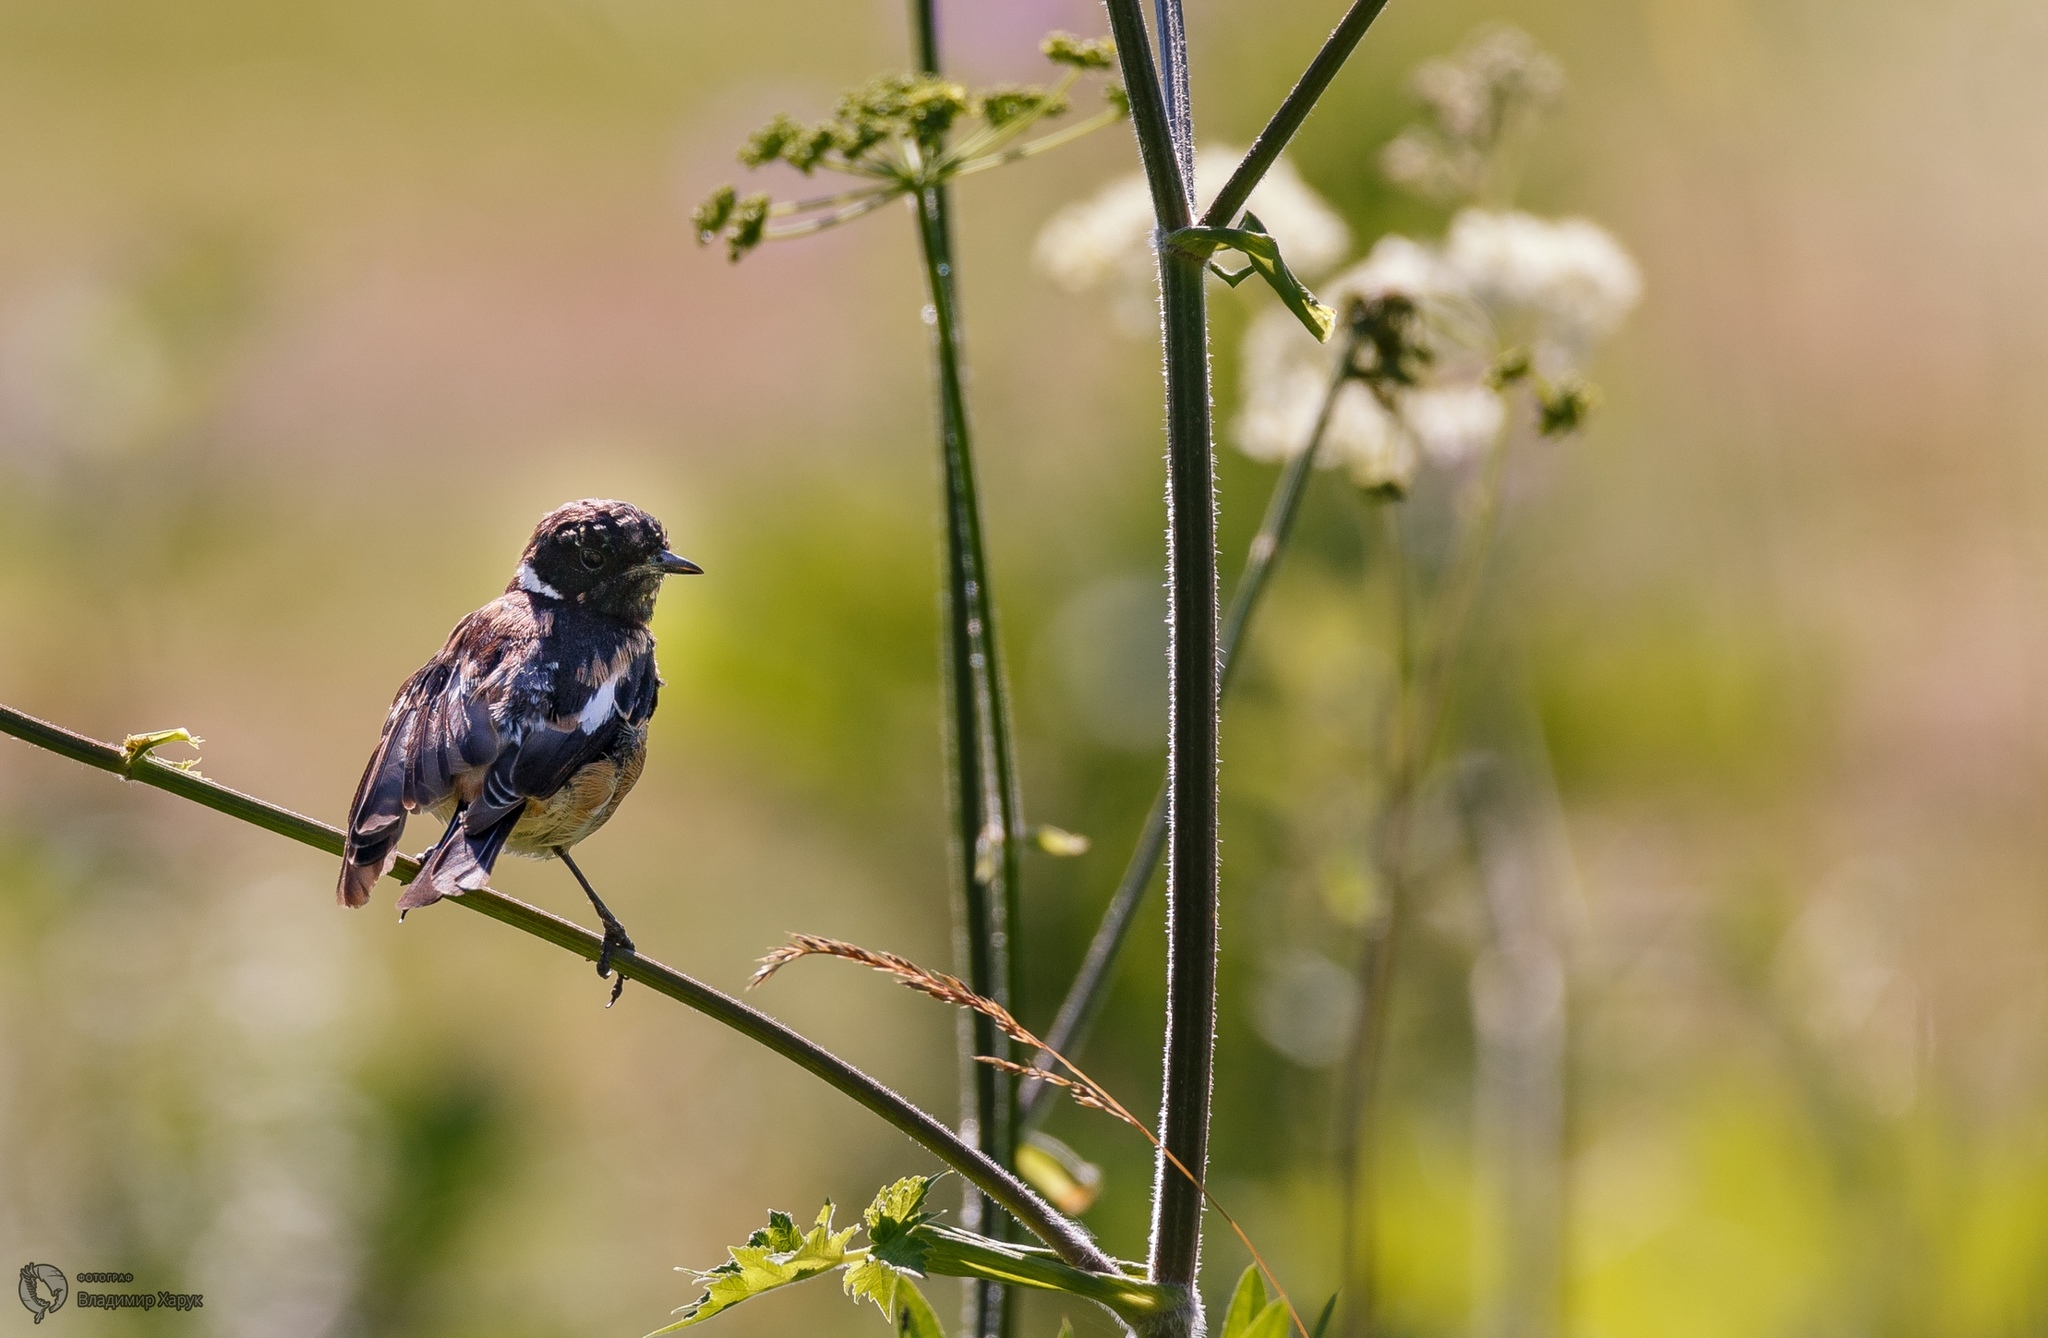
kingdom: Animalia
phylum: Chordata
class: Aves
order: Passeriformes
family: Muscicapidae
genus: Saxicola
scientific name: Saxicola maurus
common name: Siberian stonechat
